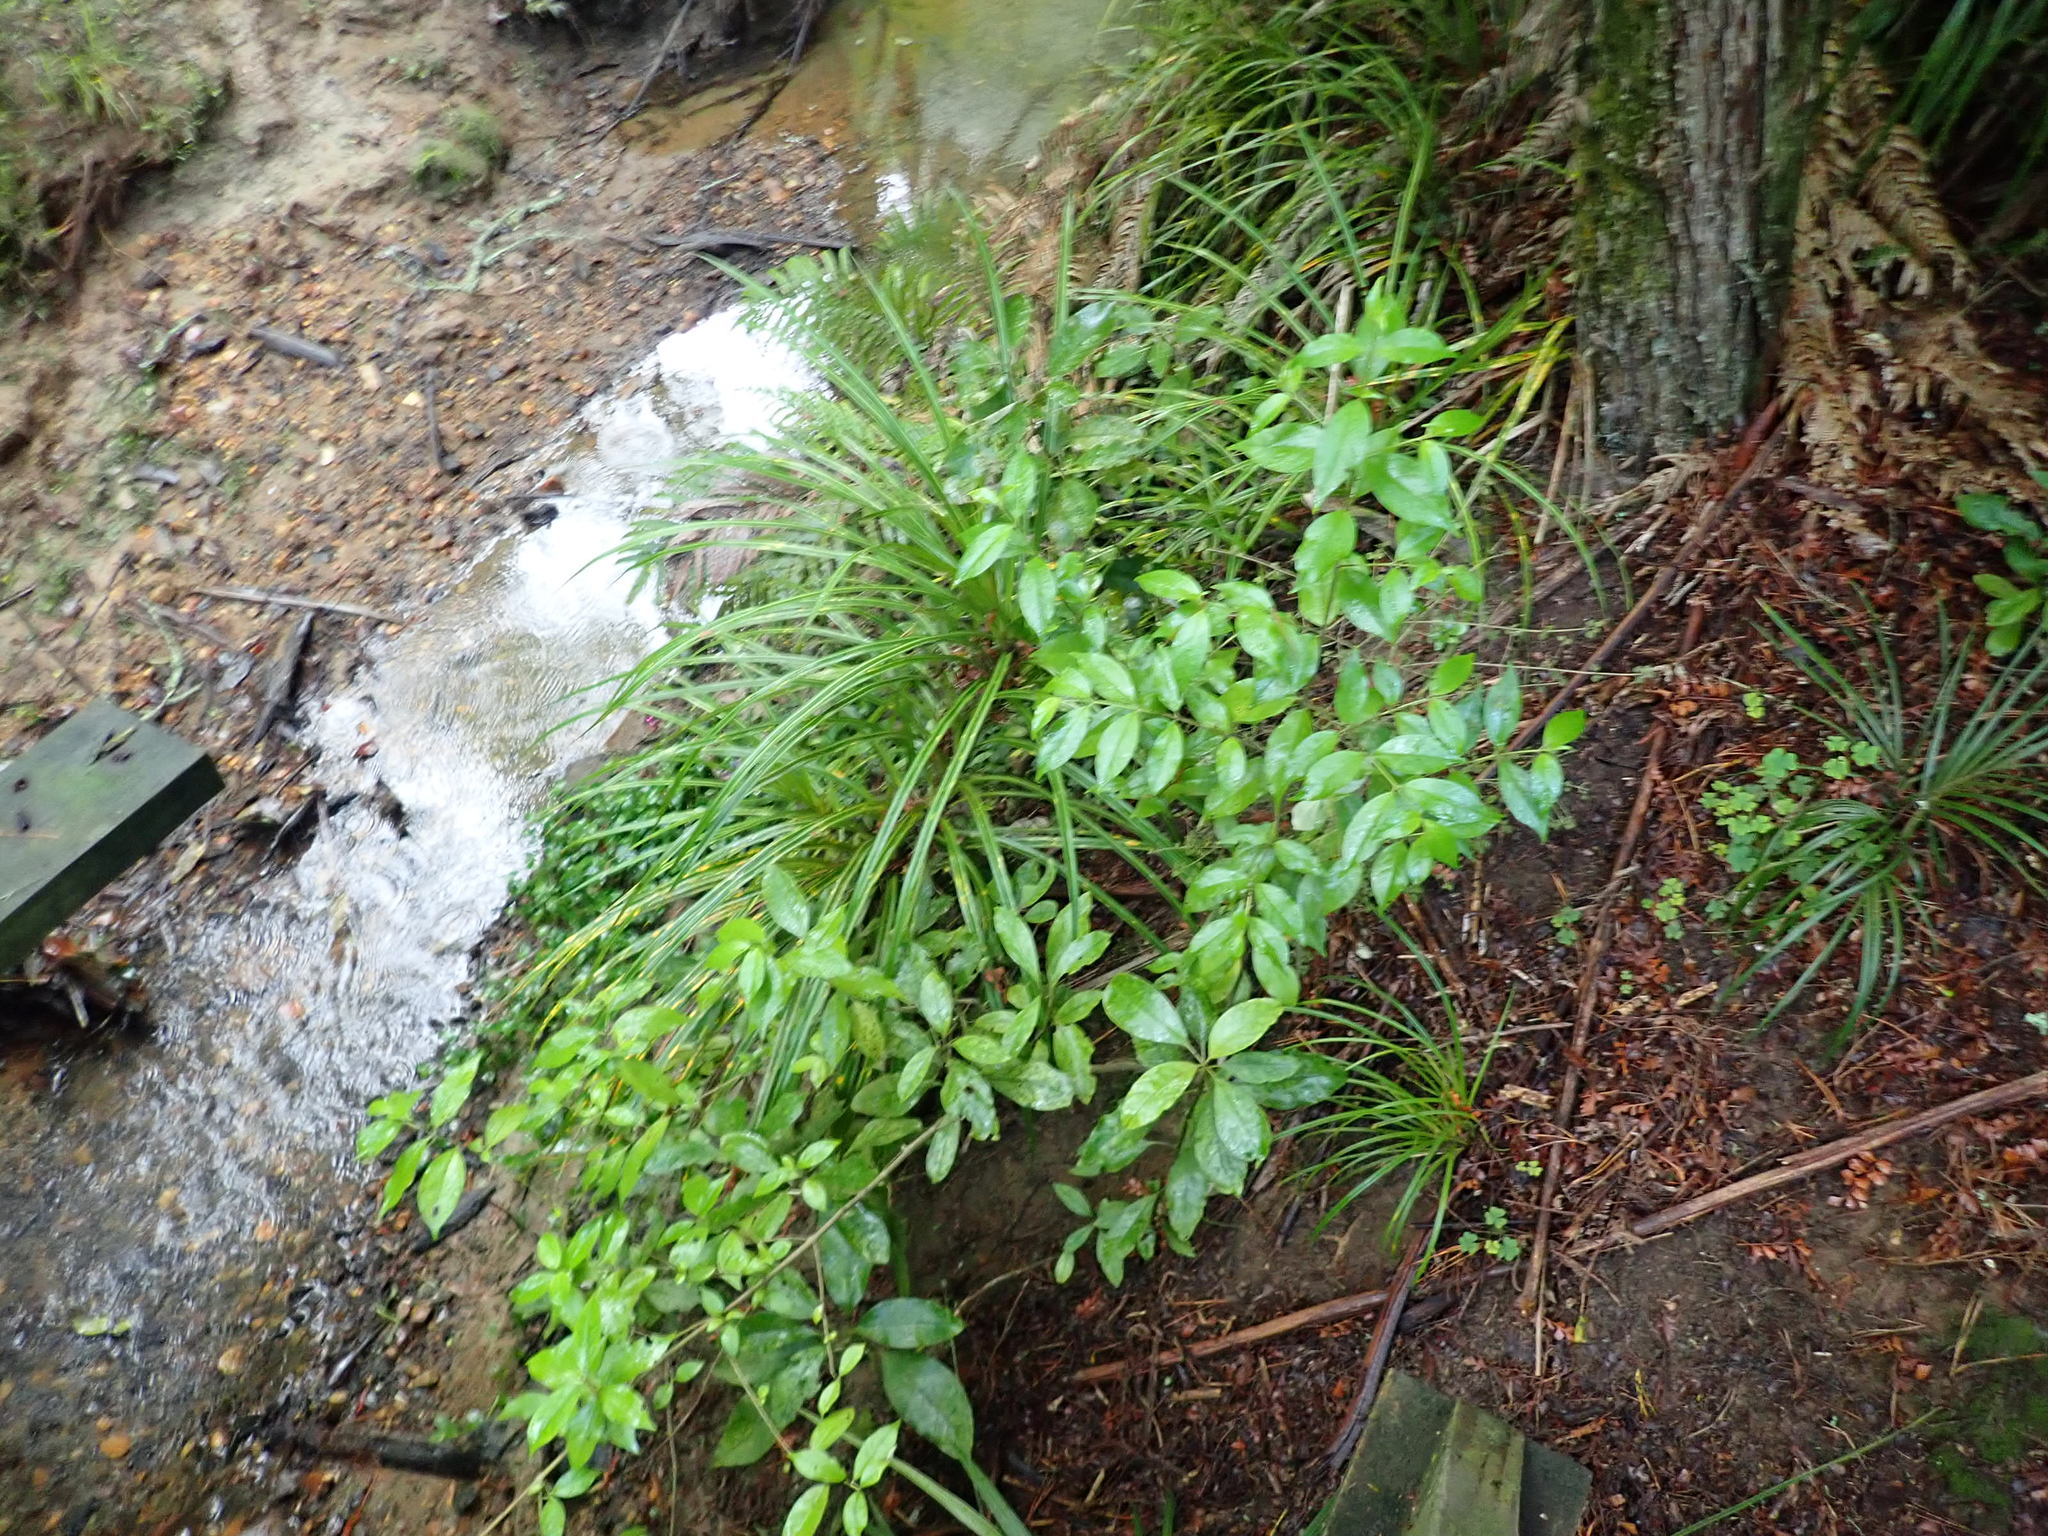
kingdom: Plantae
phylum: Tracheophyta
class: Magnoliopsida
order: Gentianales
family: Loganiaceae
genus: Geniostoma
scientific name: Geniostoma ligustrifolium
